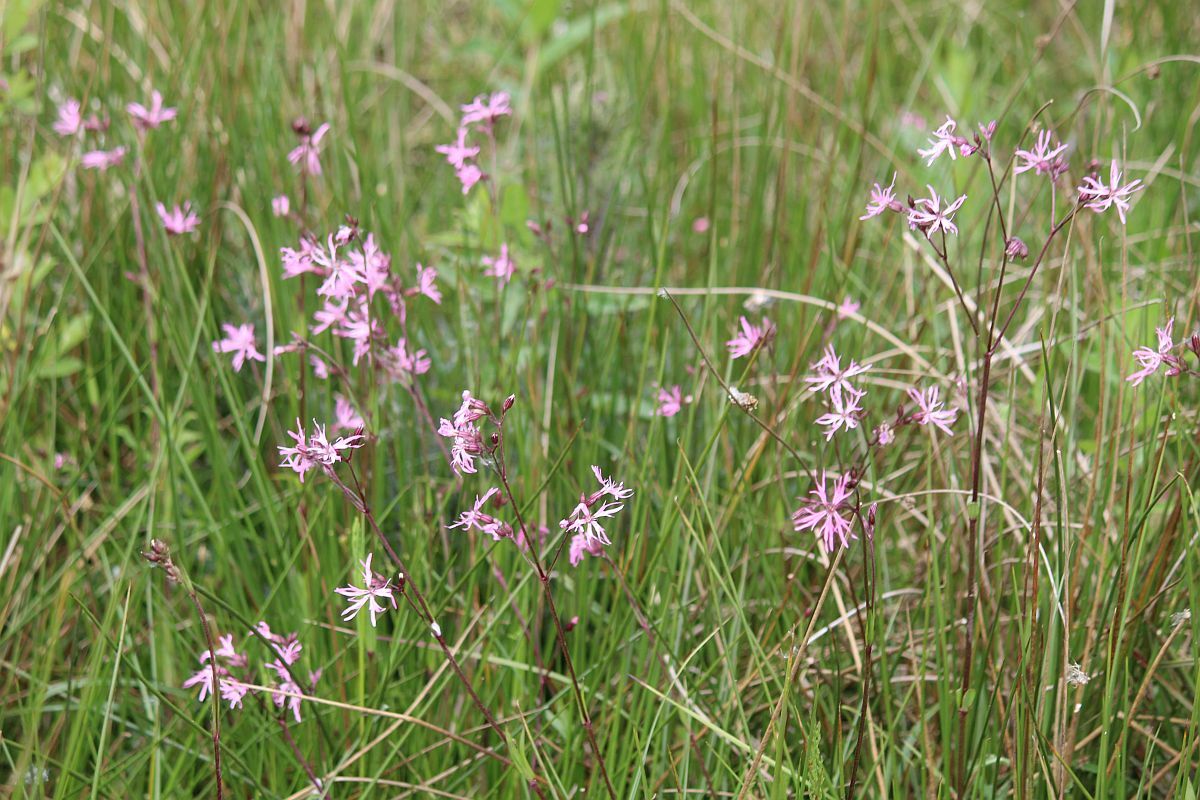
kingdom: Plantae
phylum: Tracheophyta
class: Magnoliopsida
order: Caryophyllales
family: Caryophyllaceae
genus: Silene
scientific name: Silene flos-cuculi
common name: Ragged-robin
